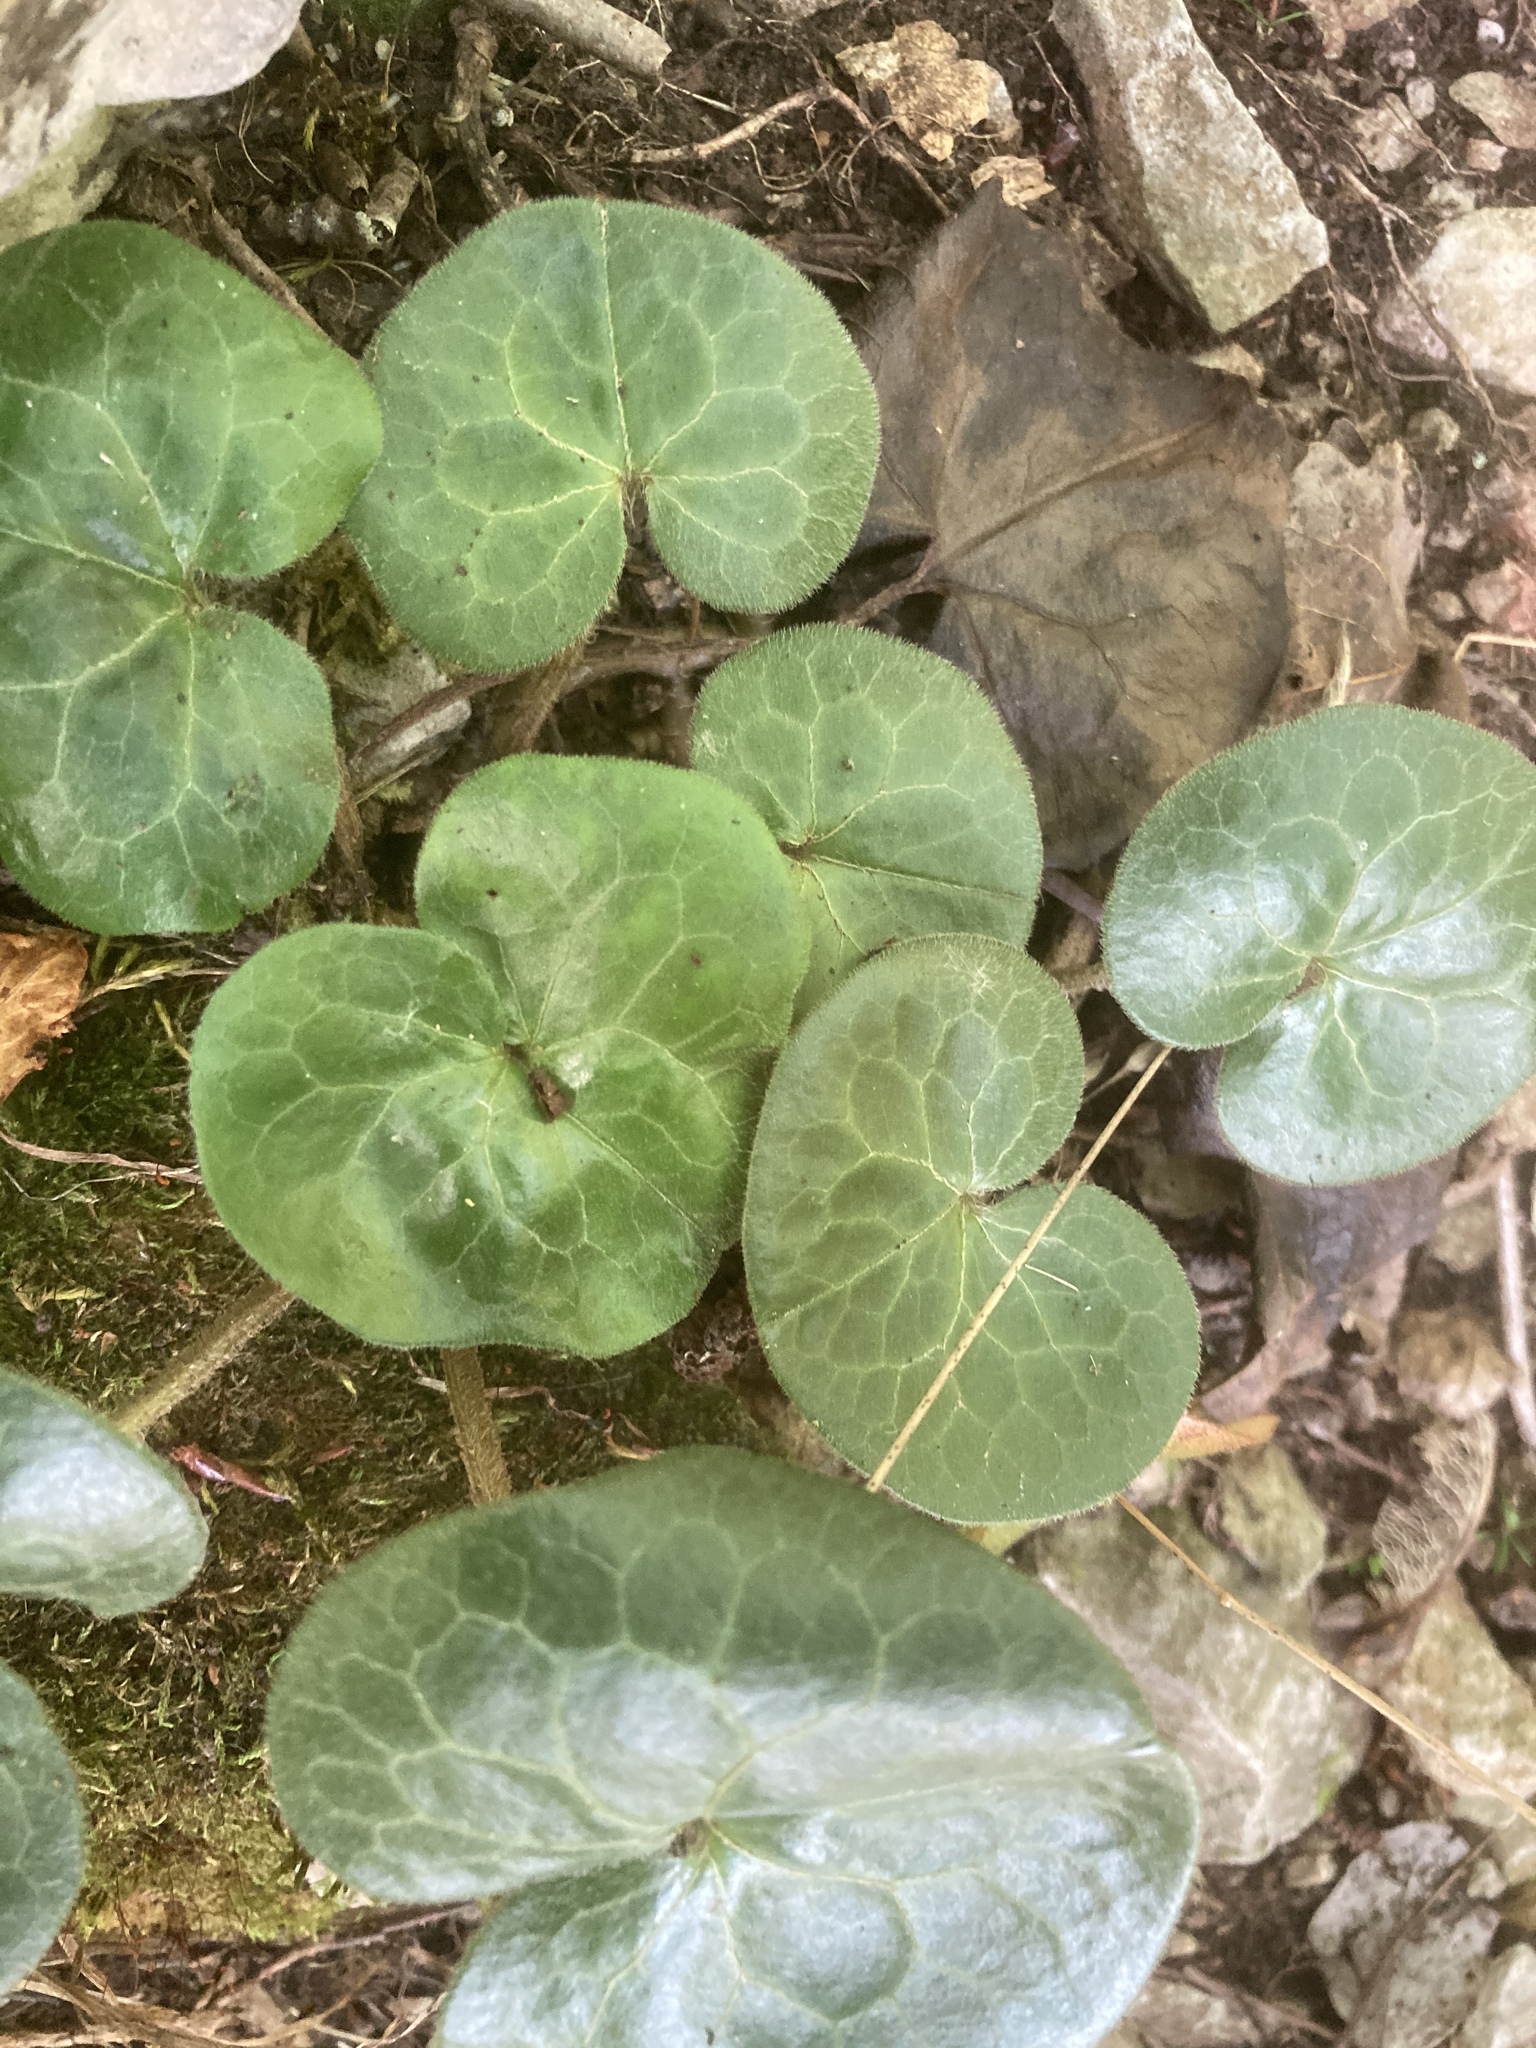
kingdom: Plantae
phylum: Tracheophyta
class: Magnoliopsida
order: Piperales
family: Aristolochiaceae
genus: Asarum
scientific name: Asarum europaeum
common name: Asarabacca
